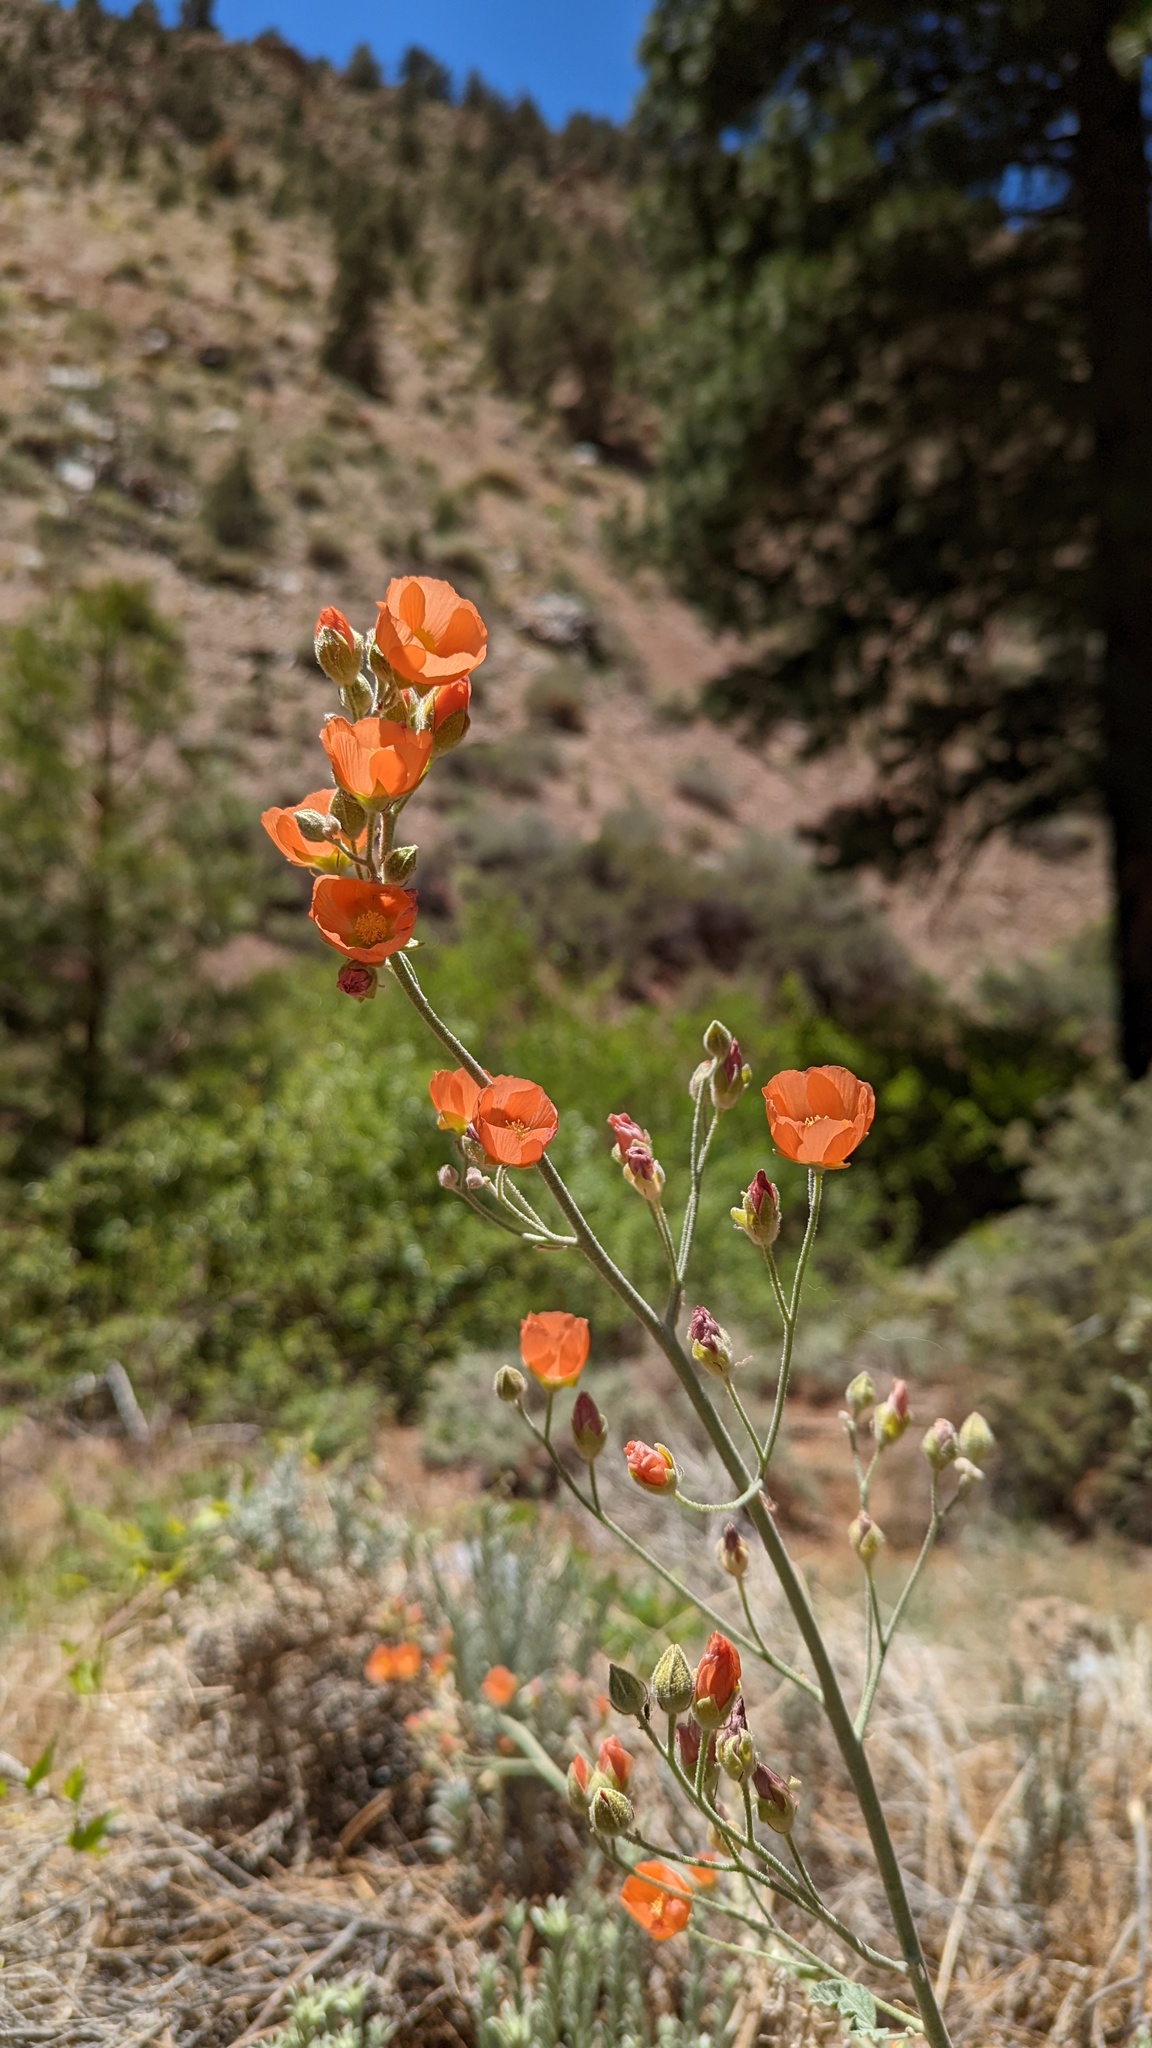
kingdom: Plantae
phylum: Tracheophyta
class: Magnoliopsida
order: Malvales
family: Malvaceae
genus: Sphaeralcea
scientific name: Sphaeralcea ambigua
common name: Apricot globe-mallow
